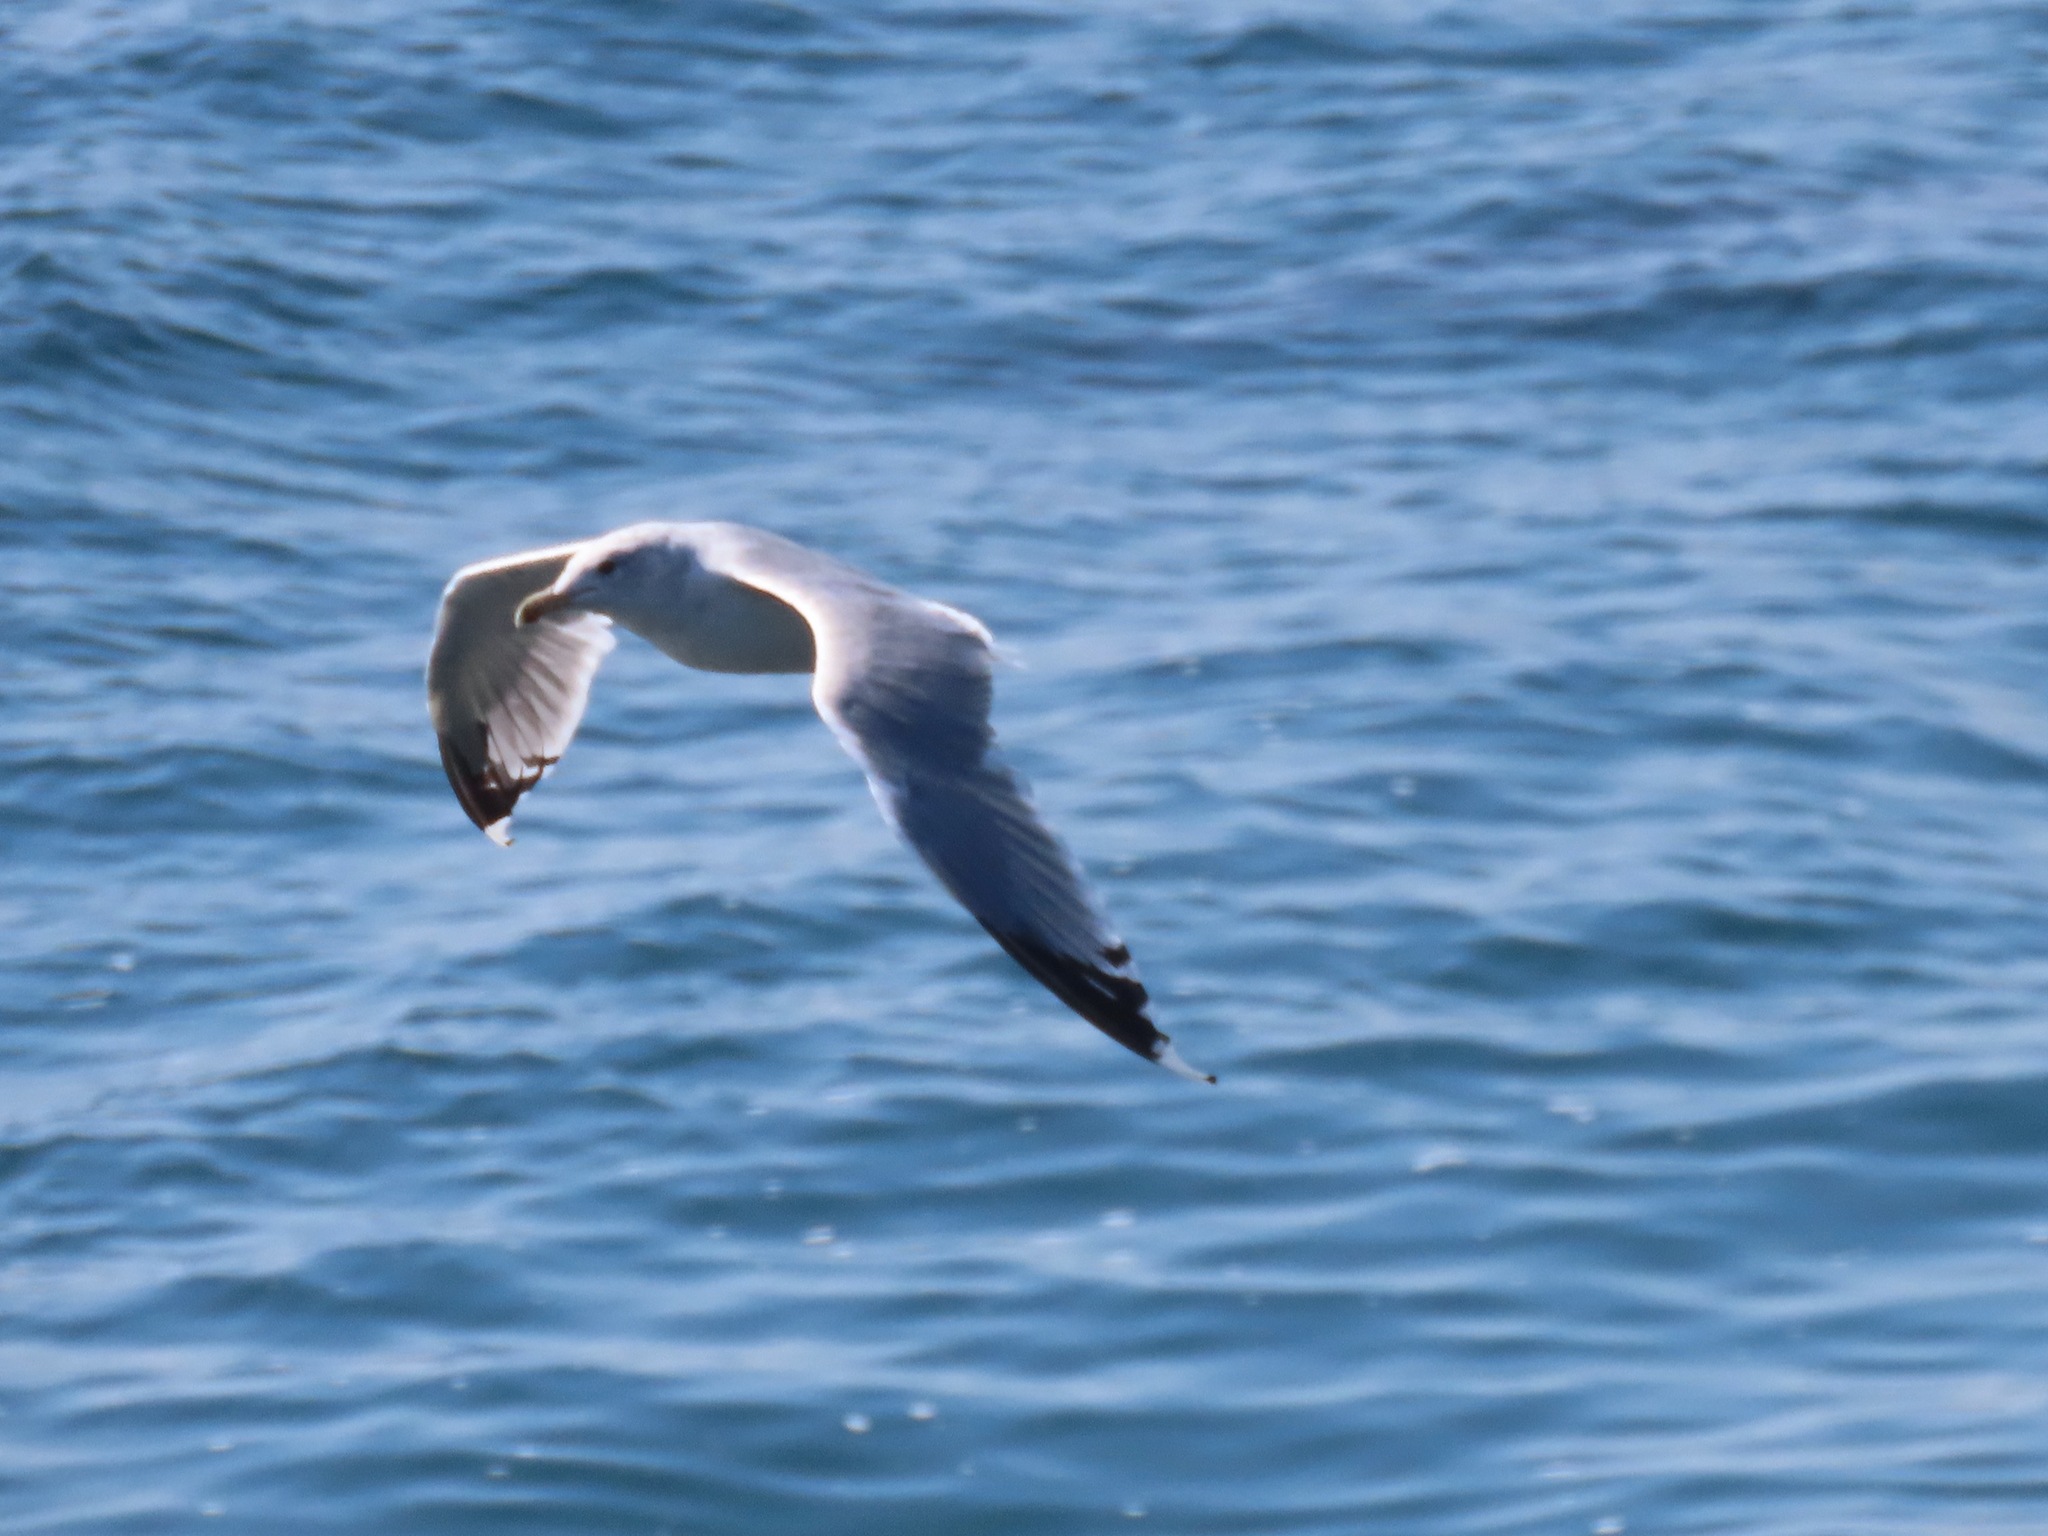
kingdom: Animalia
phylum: Chordata
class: Aves
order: Charadriiformes
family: Laridae
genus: Larus
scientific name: Larus californicus
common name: California gull
